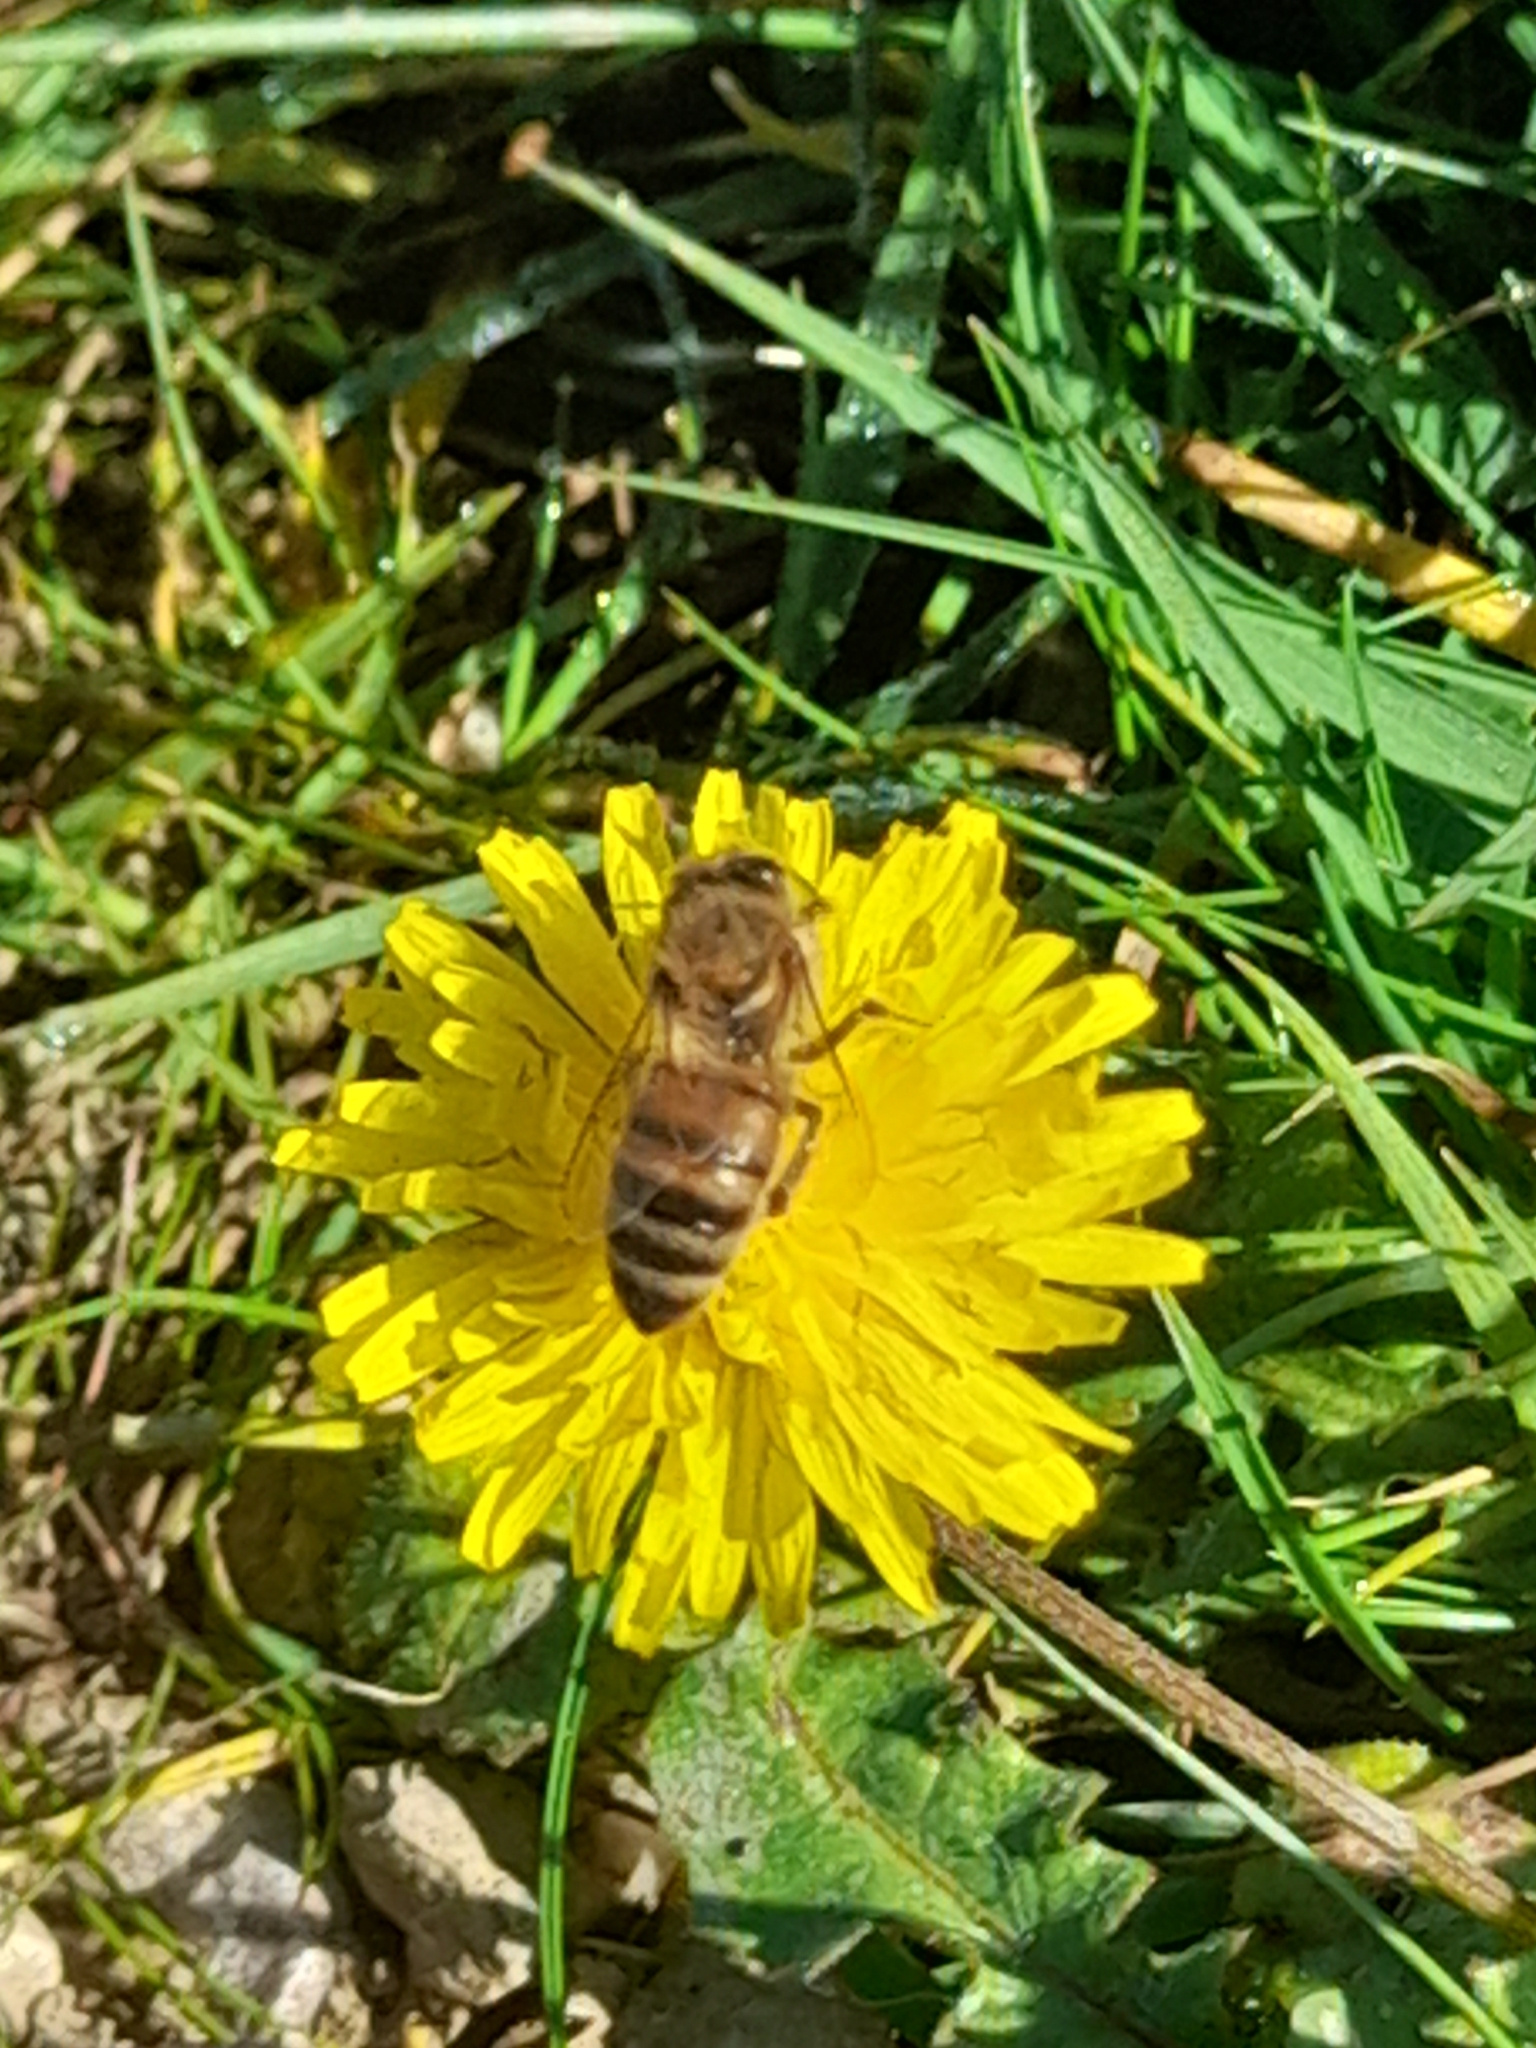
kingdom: Animalia
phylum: Arthropoda
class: Insecta
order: Hymenoptera
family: Apidae
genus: Apis
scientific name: Apis mellifera
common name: Honey bee
